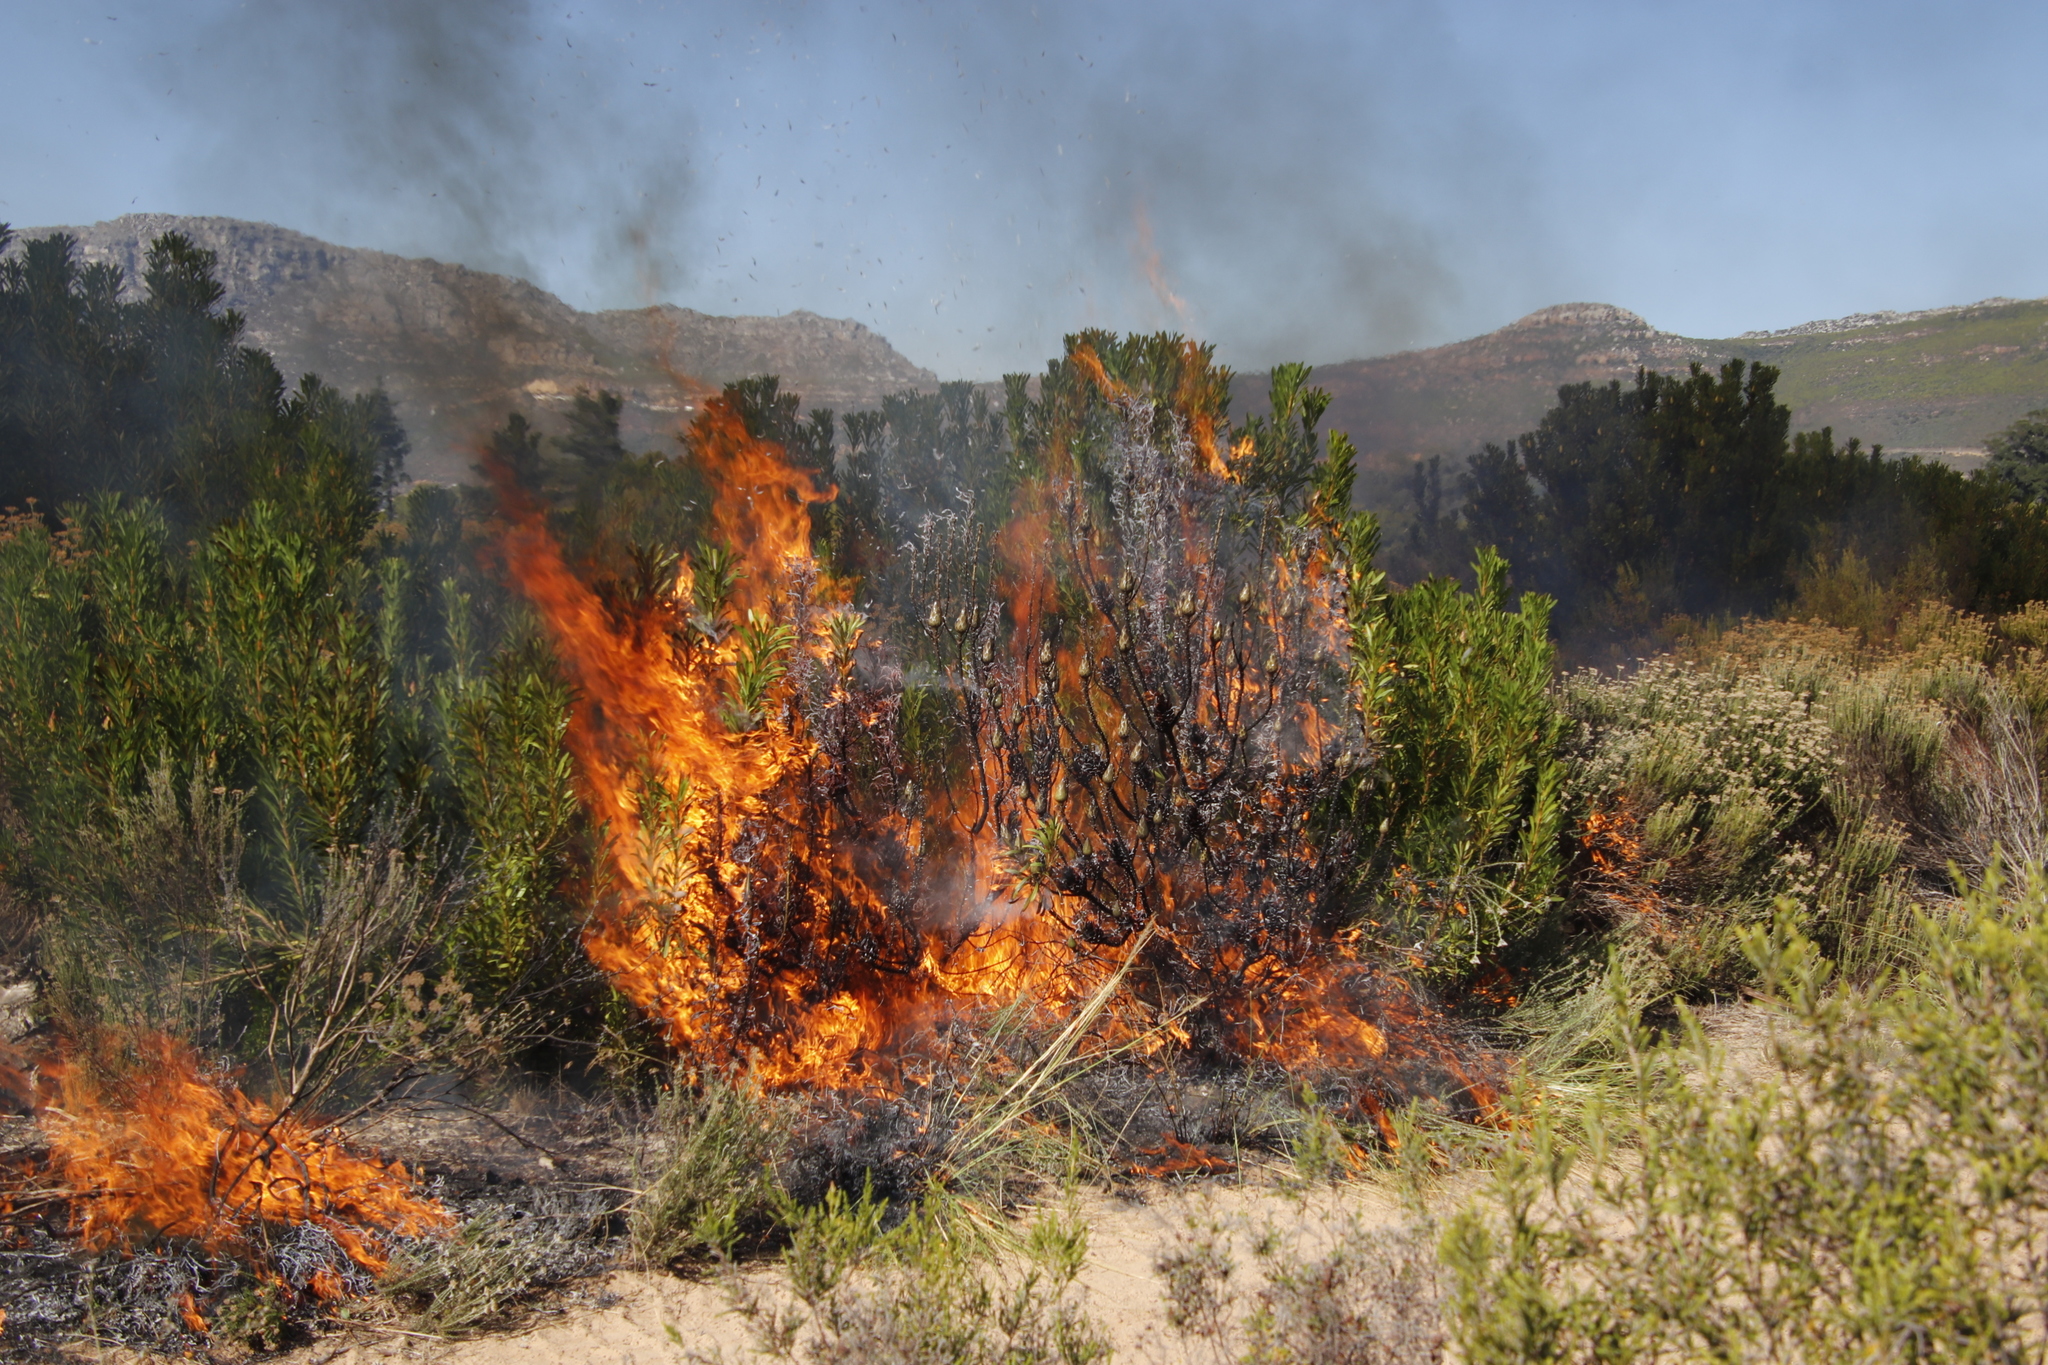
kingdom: Plantae
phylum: Tracheophyta
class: Magnoliopsida
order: Proteales
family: Proteaceae
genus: Protea
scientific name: Protea repens
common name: Sugarbush
